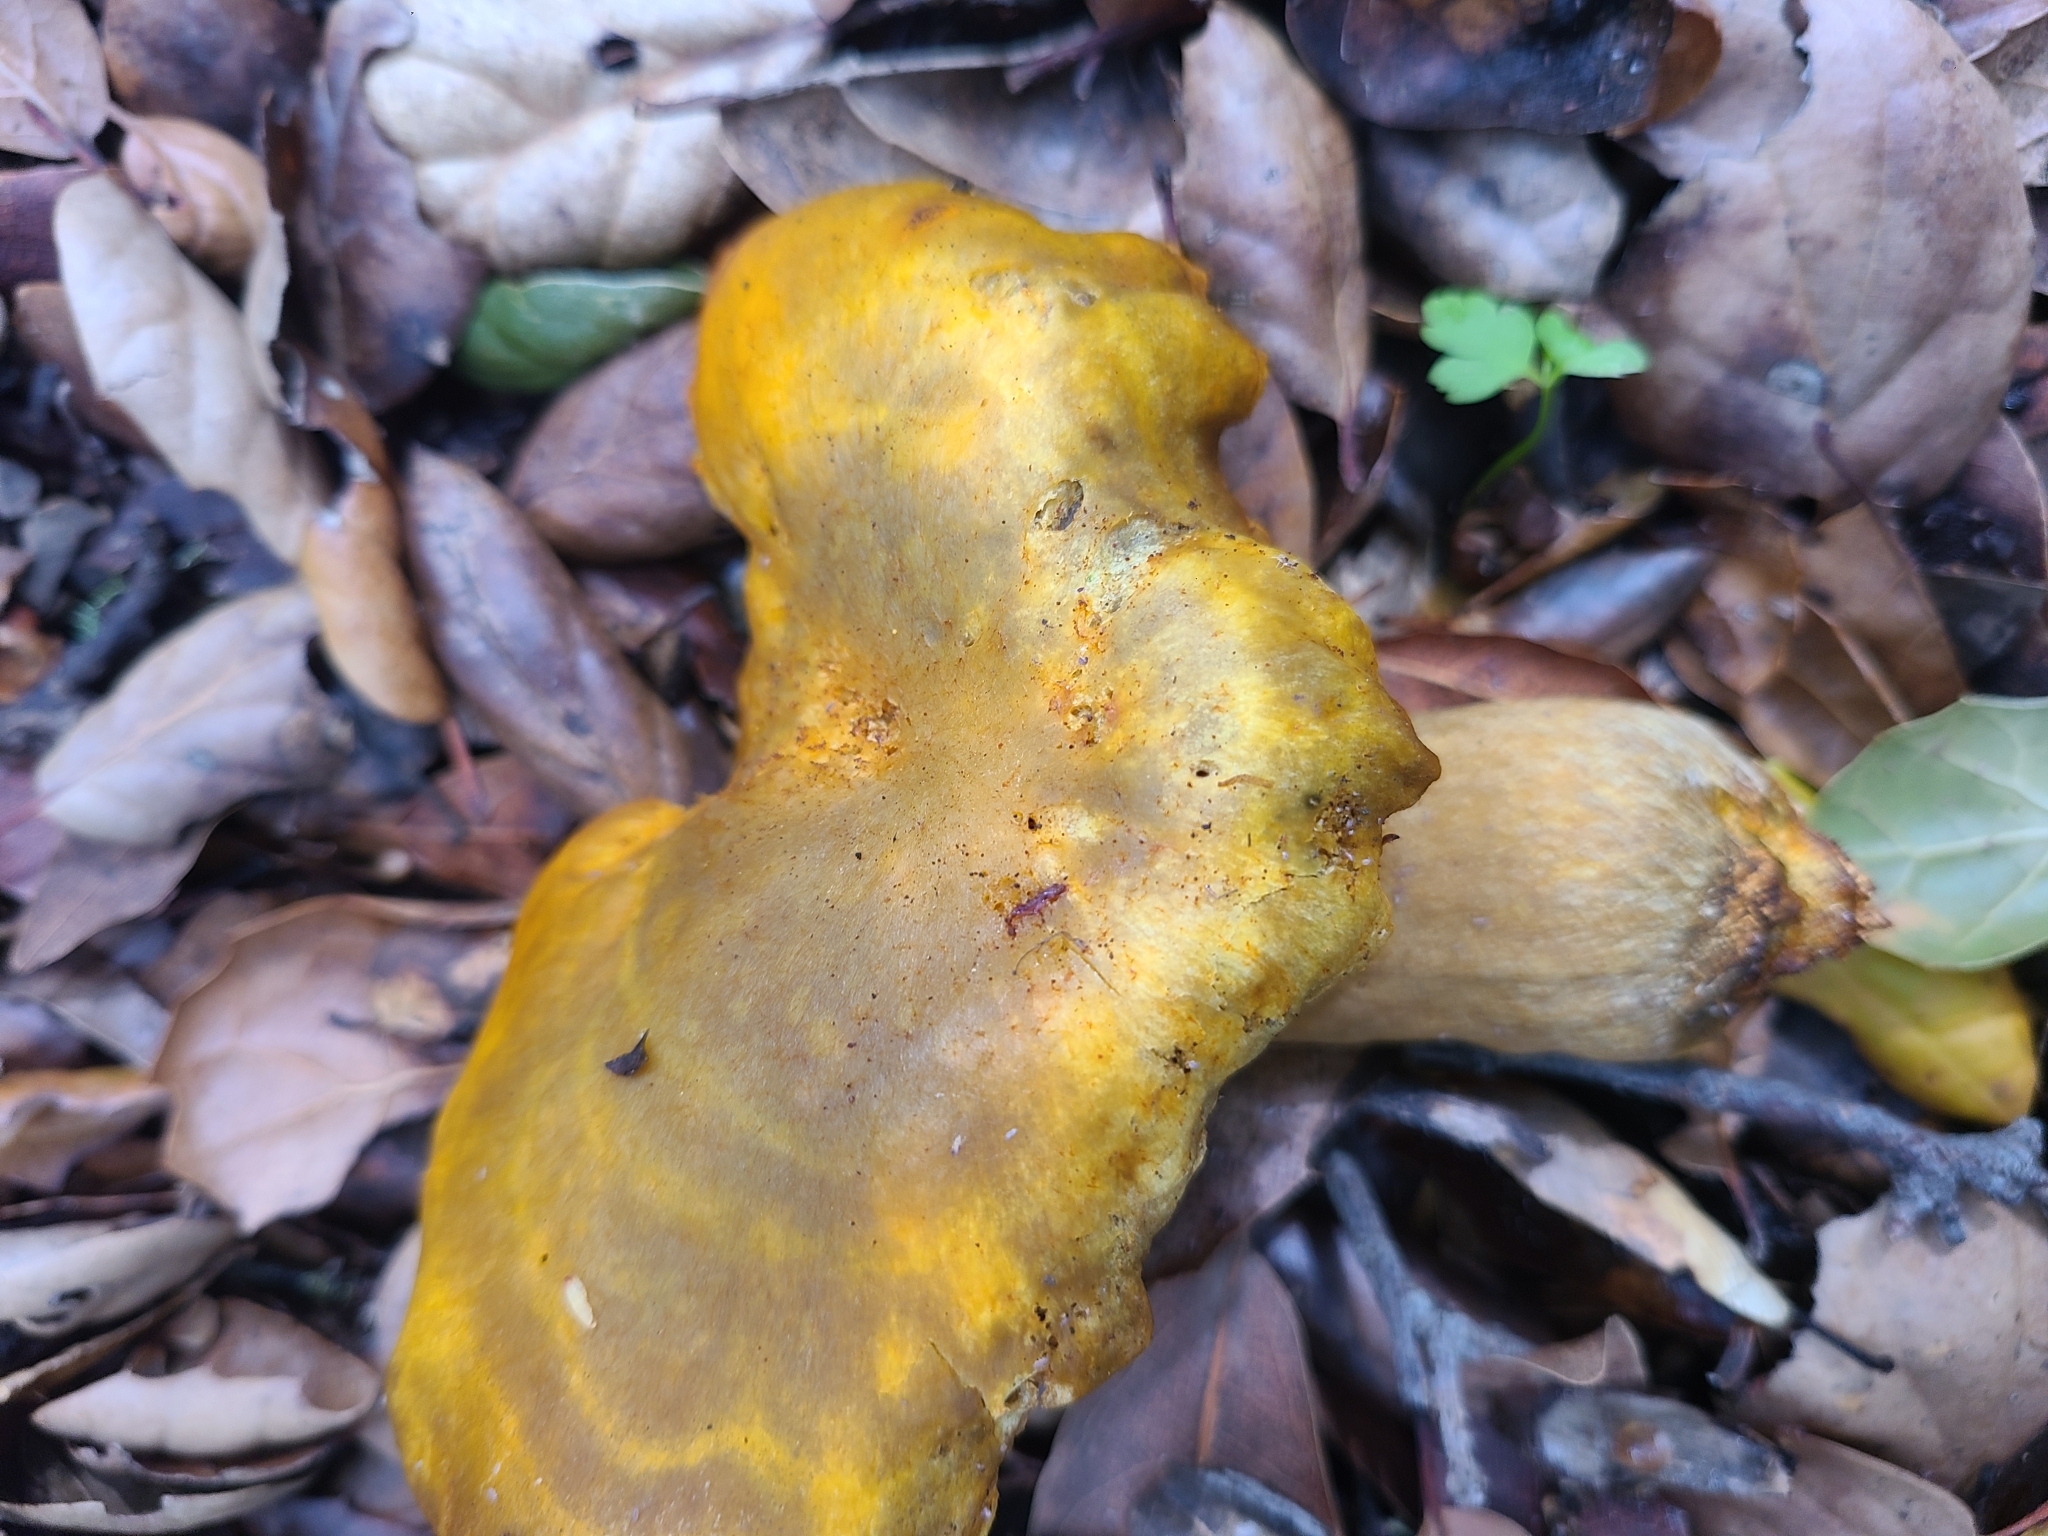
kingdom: Fungi
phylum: Basidiomycota
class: Agaricomycetes
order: Agaricales
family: Omphalotaceae
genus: Omphalotus
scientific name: Omphalotus olivascens
